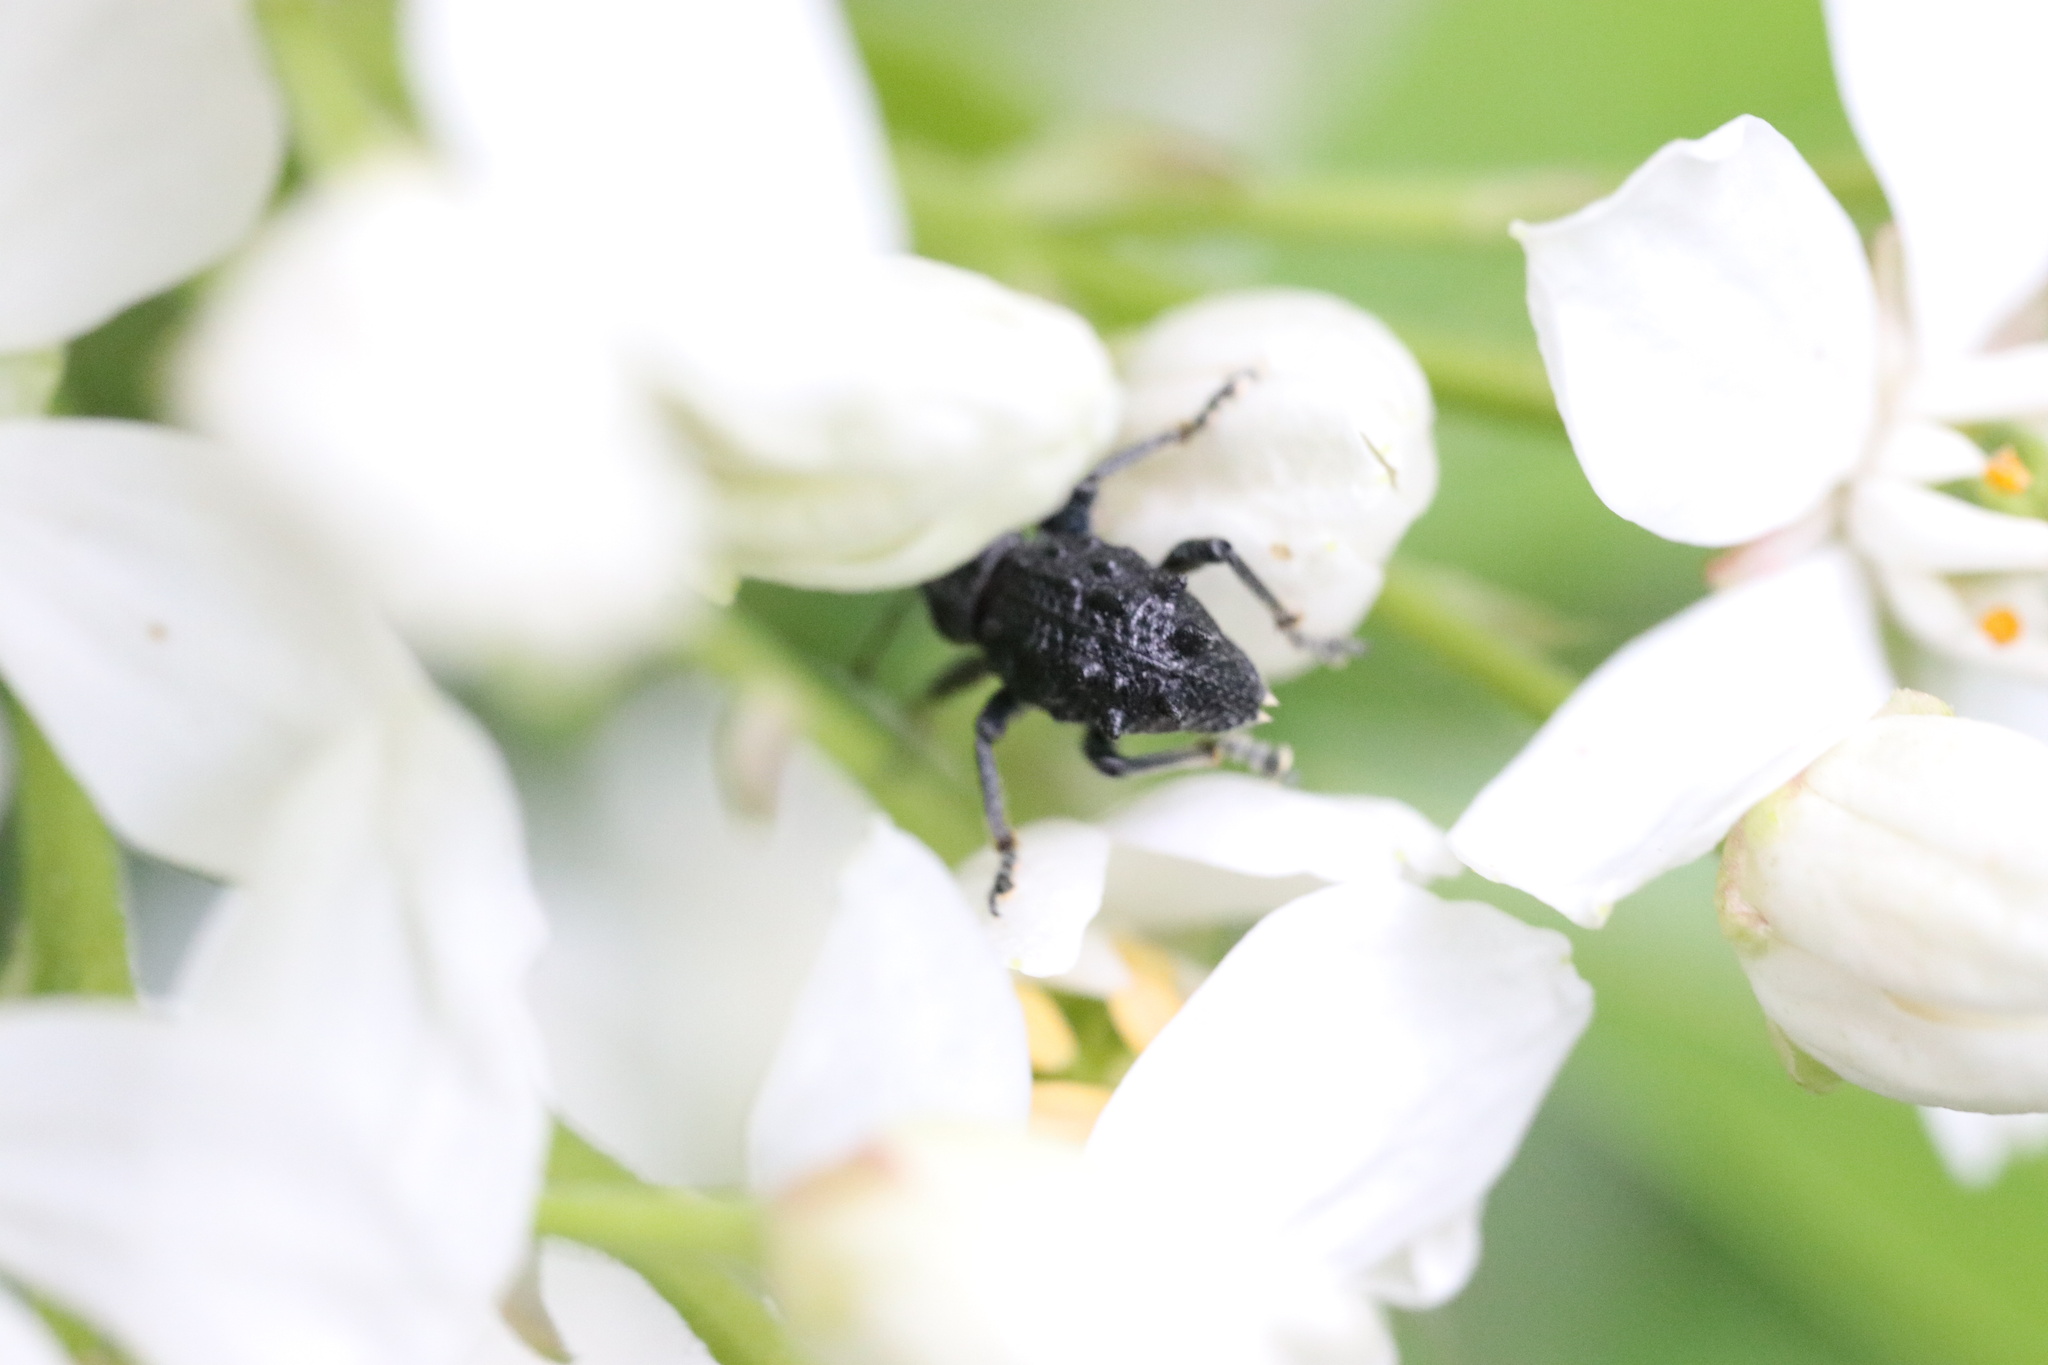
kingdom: Animalia
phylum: Arthropoda
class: Insecta
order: Coleoptera
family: Curculionidae
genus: Megalometis
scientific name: Megalometis spiniferus
